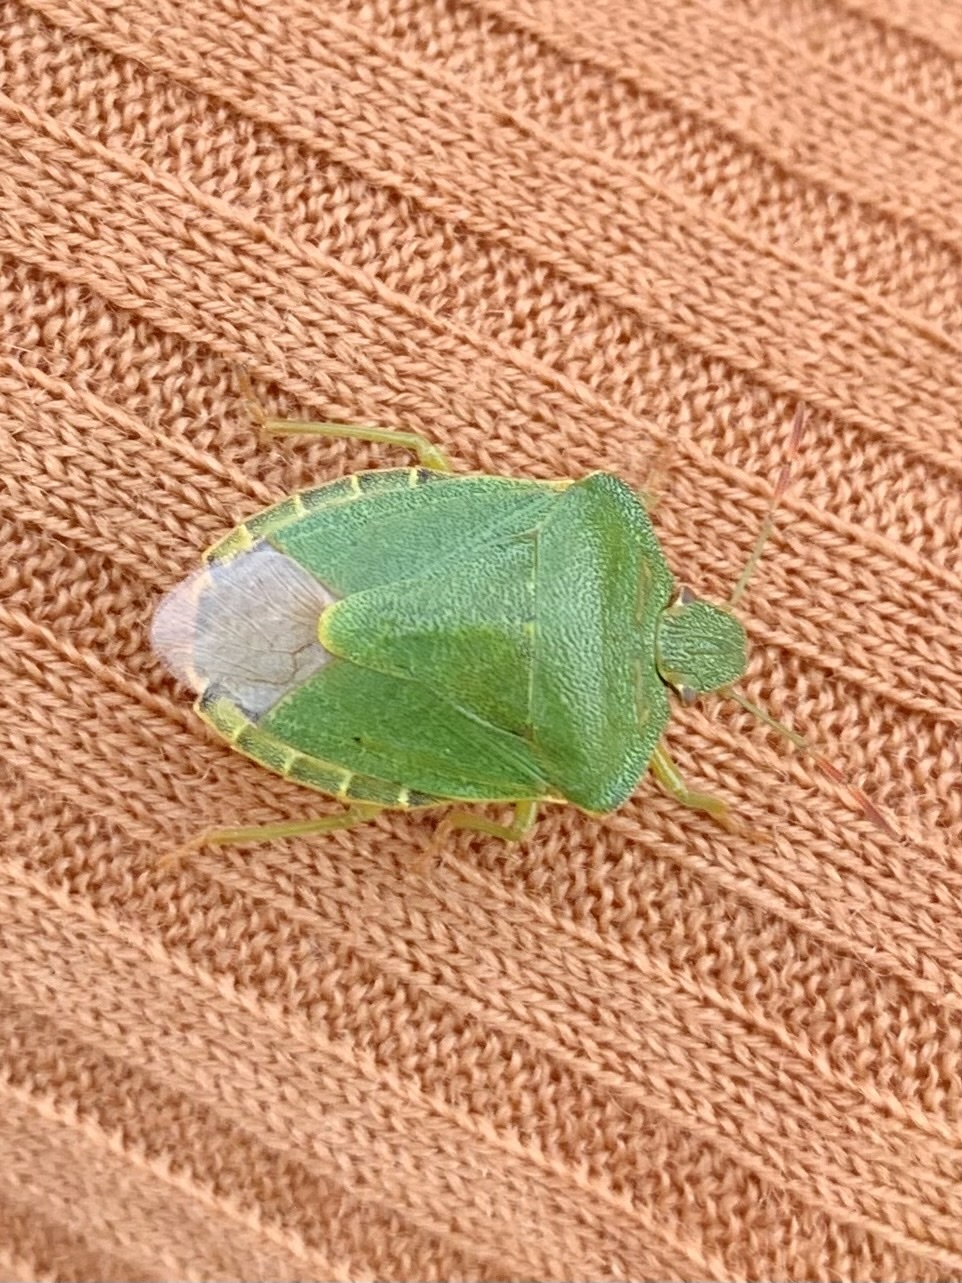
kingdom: Animalia
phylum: Arthropoda
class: Insecta
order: Hemiptera
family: Pentatomidae
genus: Palomena
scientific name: Palomena prasina
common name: Green shieldbug
